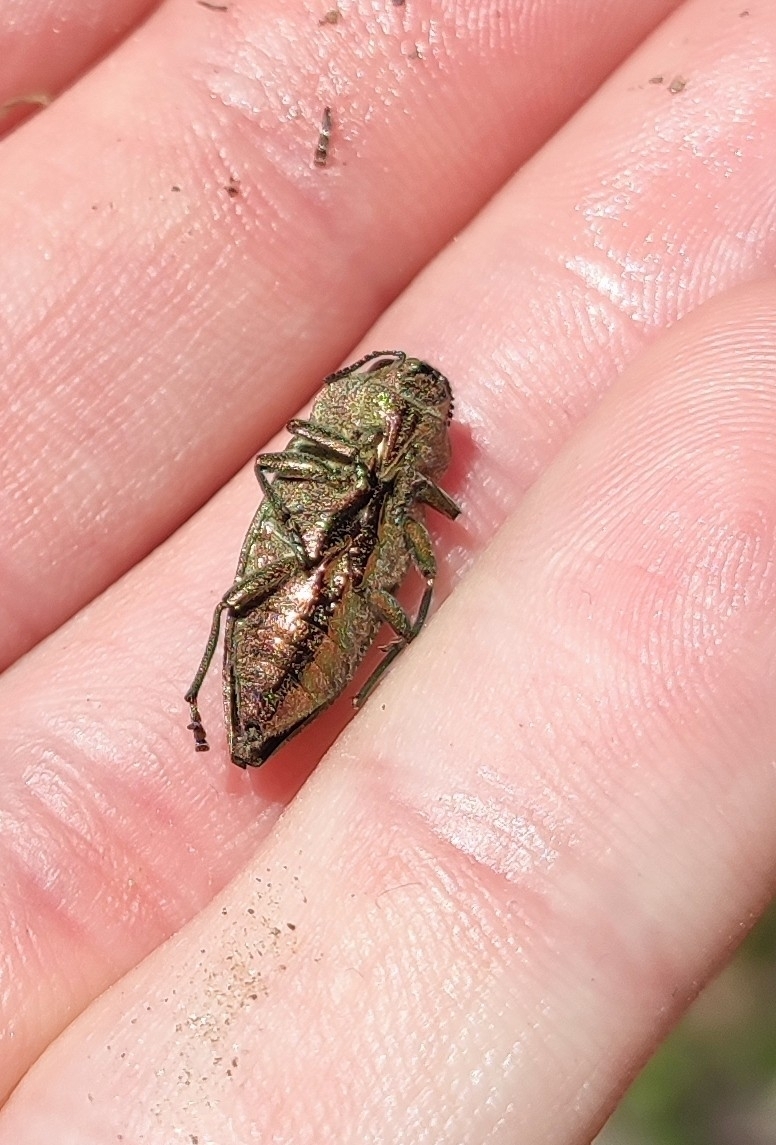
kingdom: Animalia
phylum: Arthropoda
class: Insecta
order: Coleoptera
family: Buprestidae
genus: Latipalpis
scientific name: Latipalpis plana
